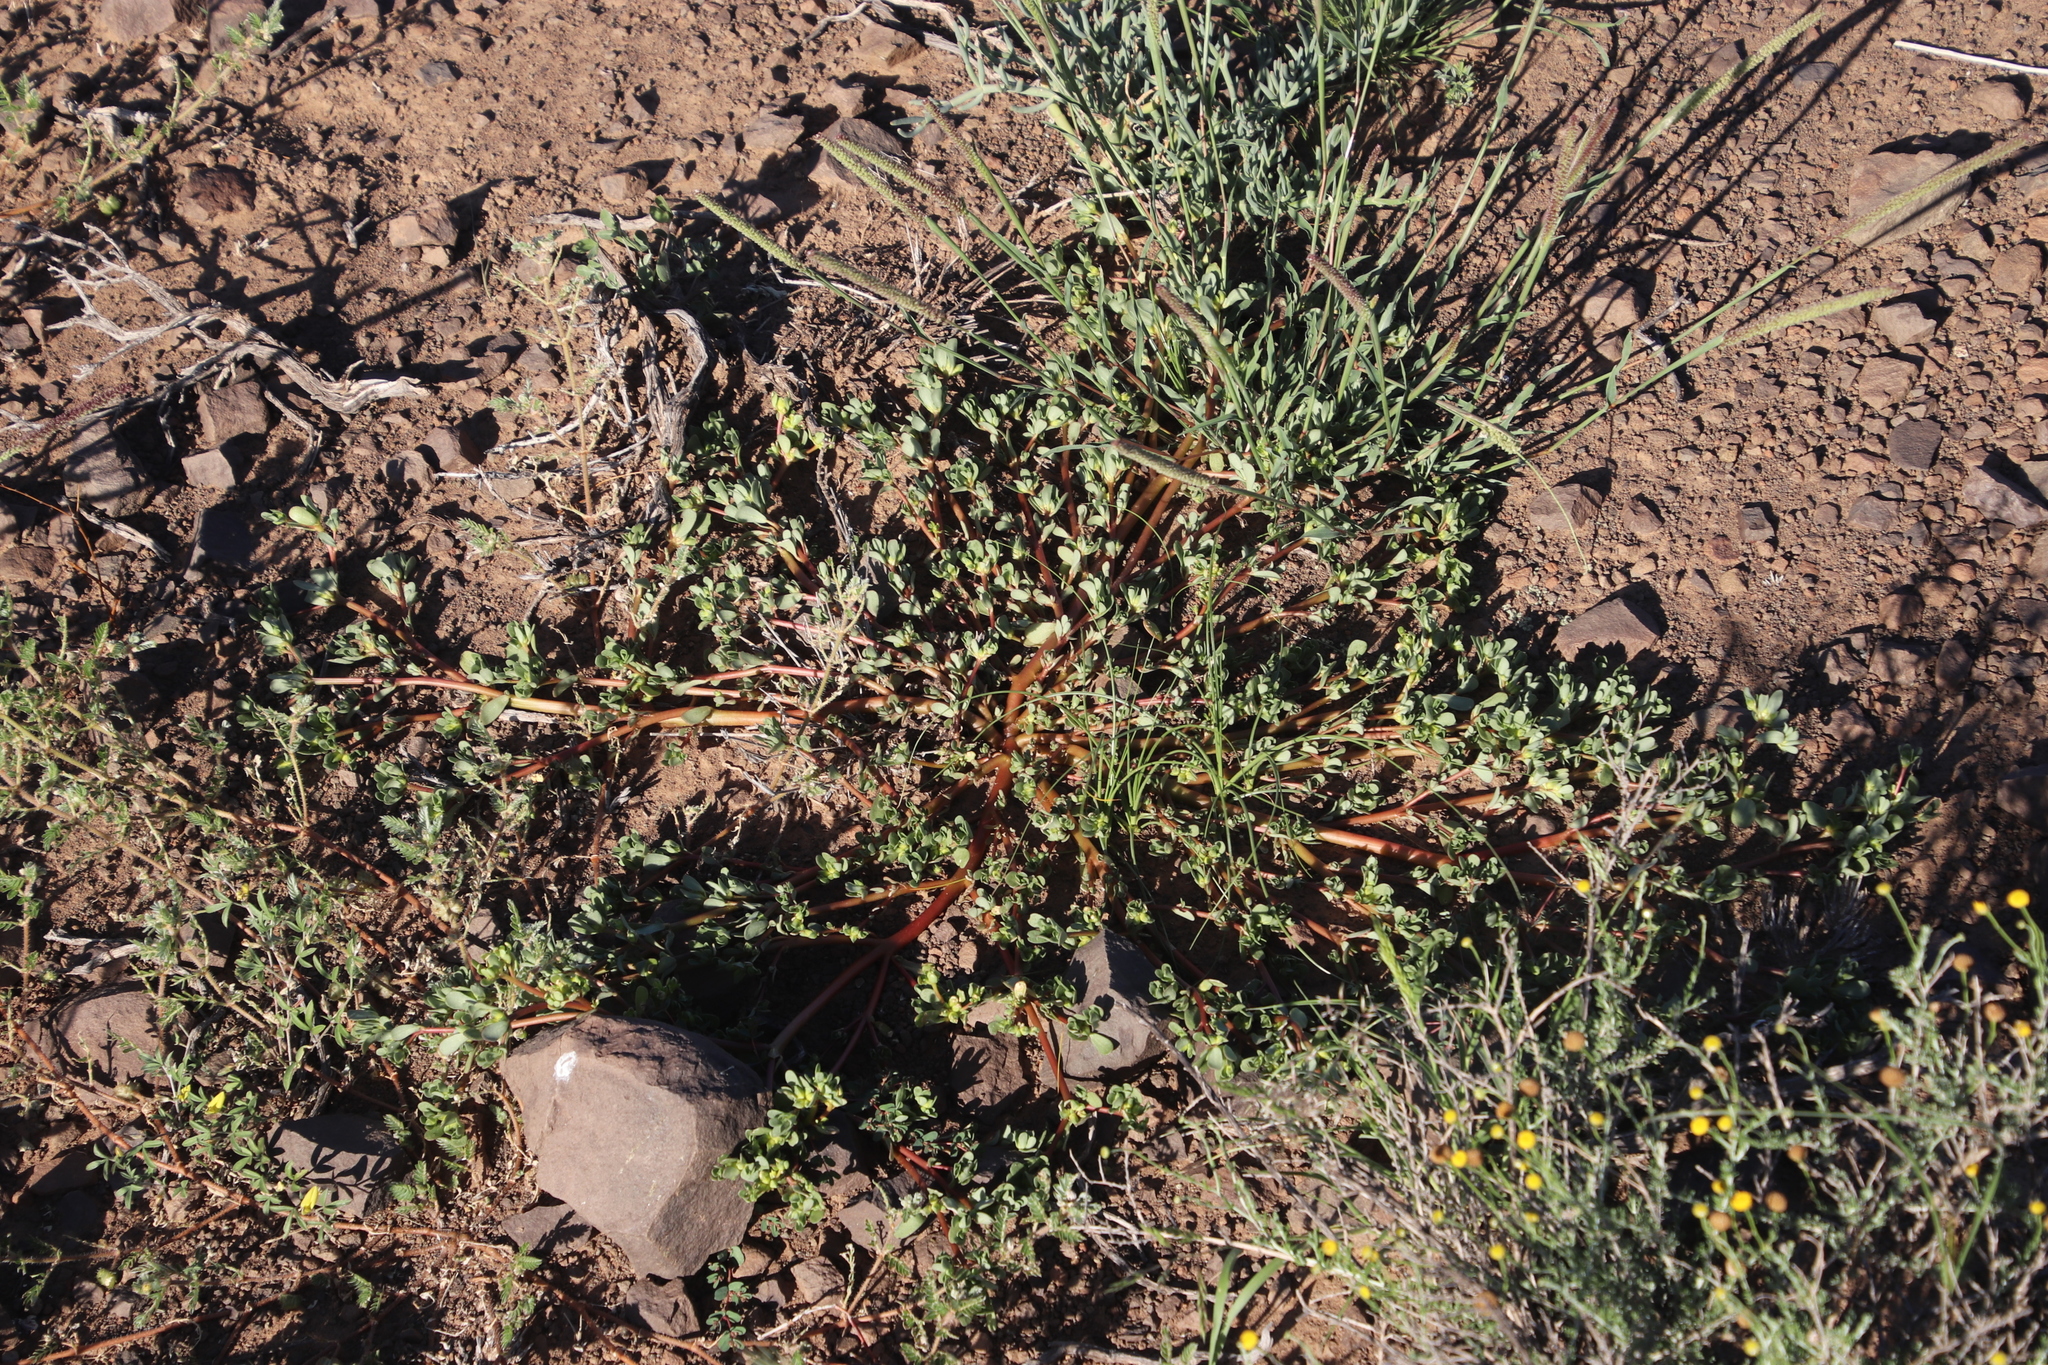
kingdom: Plantae
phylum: Tracheophyta
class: Magnoliopsida
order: Caryophyllales
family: Portulacaceae
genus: Portulaca
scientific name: Portulaca oleracea
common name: Common purslane
